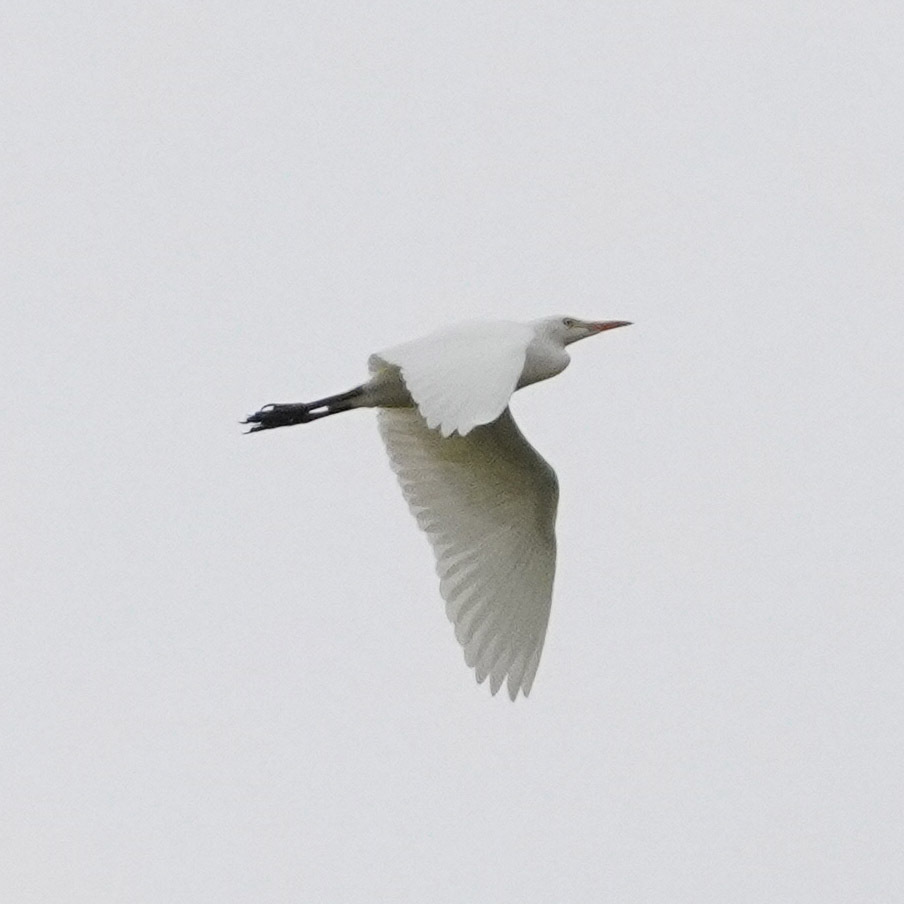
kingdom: Animalia
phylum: Chordata
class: Aves
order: Pelecaniformes
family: Ardeidae
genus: Bubulcus
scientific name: Bubulcus ibis
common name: Cattle egret
